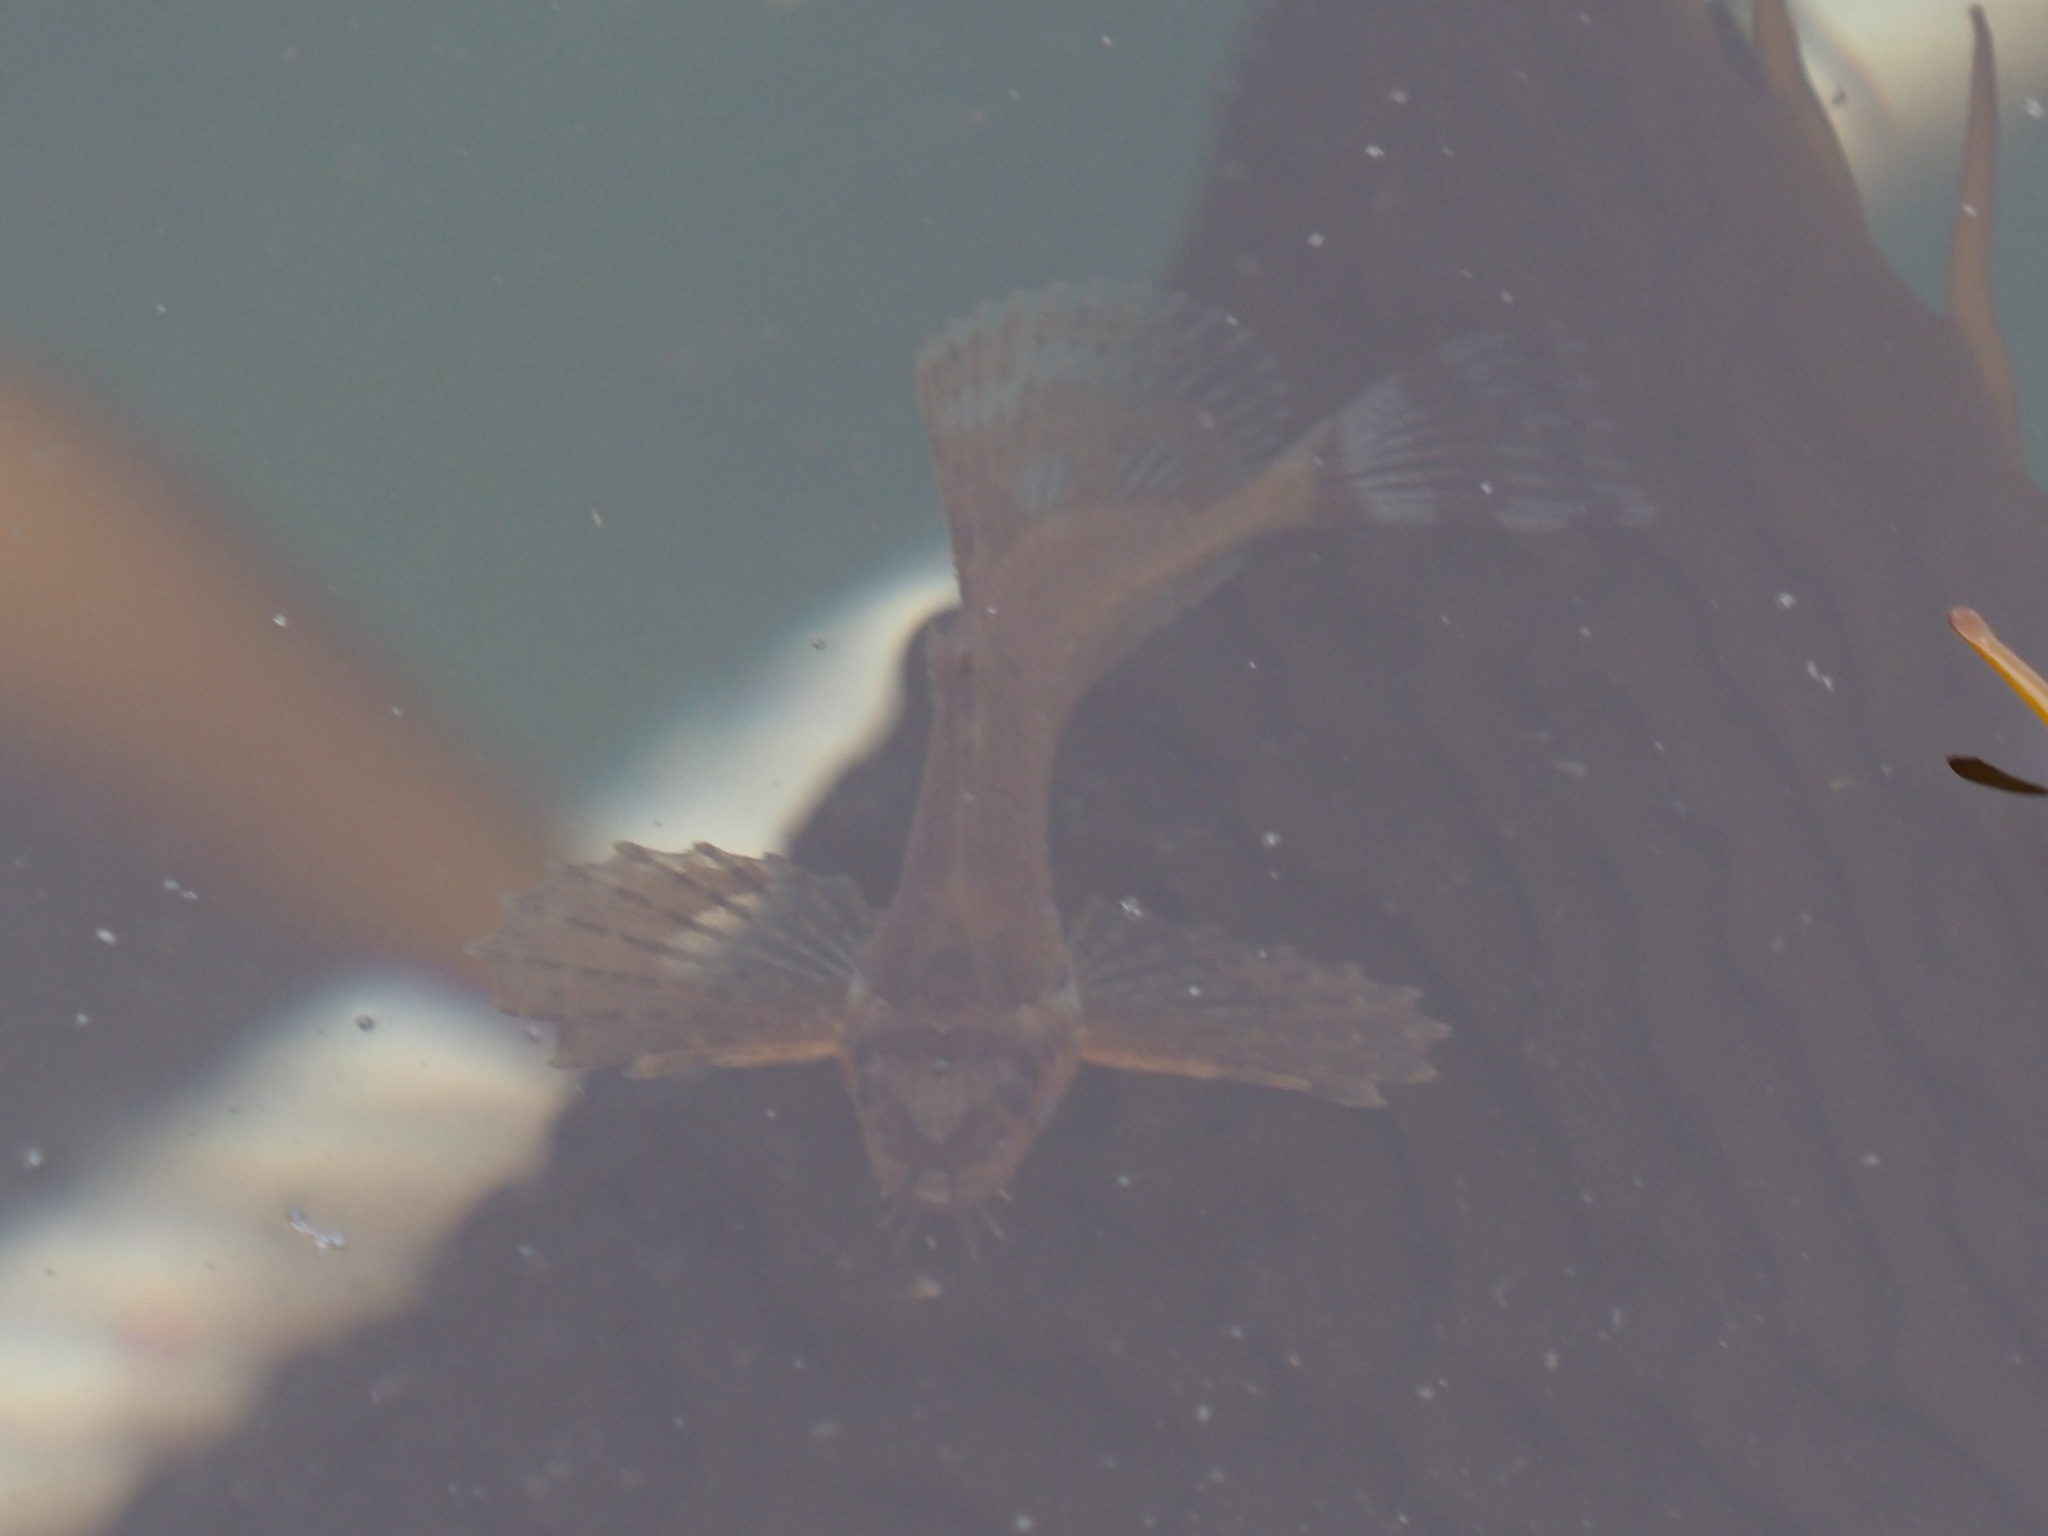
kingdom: Animalia
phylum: Chordata
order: Scorpaeniformes
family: Hemitripteridae
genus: Blepsias
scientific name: Blepsias cirrhosus
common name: Silverspotted sculpin
